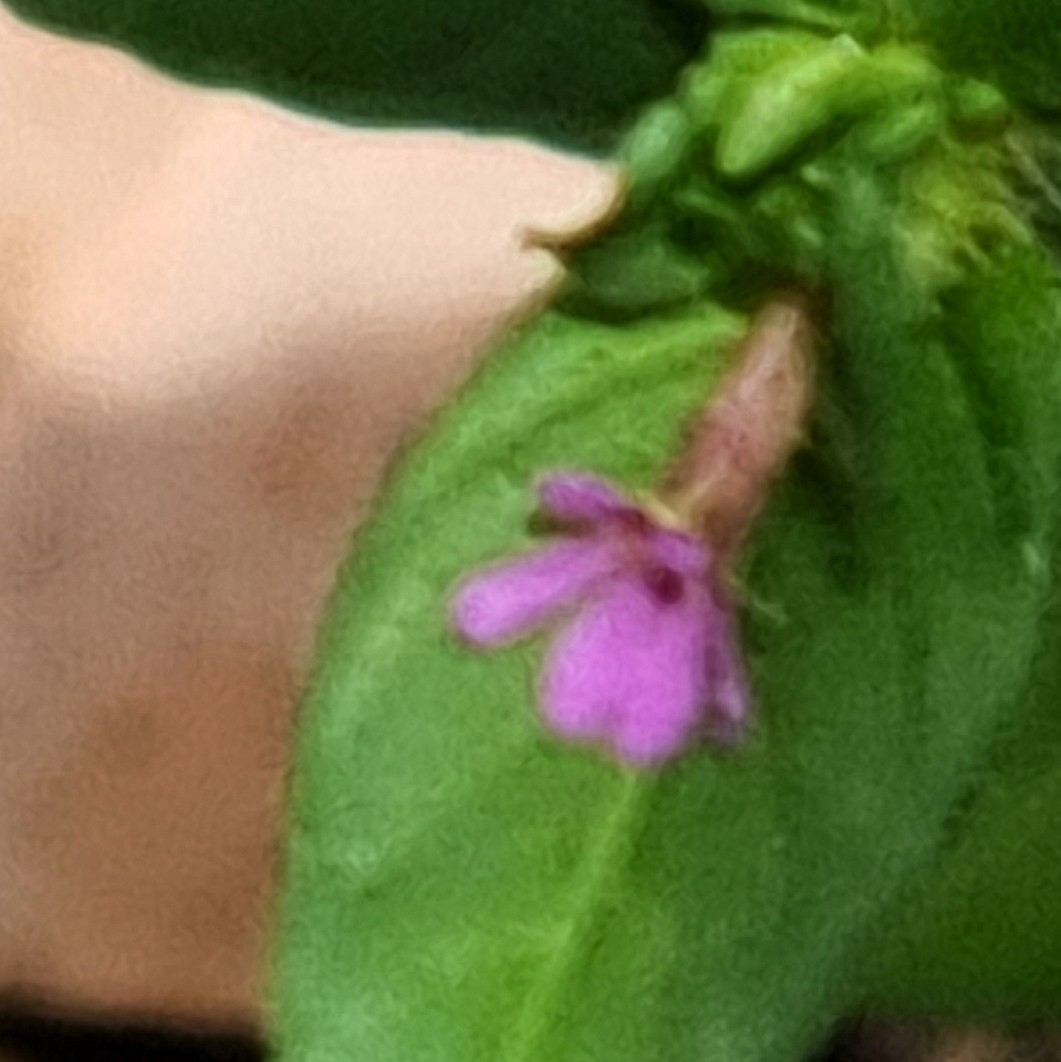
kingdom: Plantae
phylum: Tracheophyta
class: Magnoliopsida
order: Myrtales
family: Lythraceae
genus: Cuphea
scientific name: Cuphea carthagenensis
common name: Colombian waxweed
